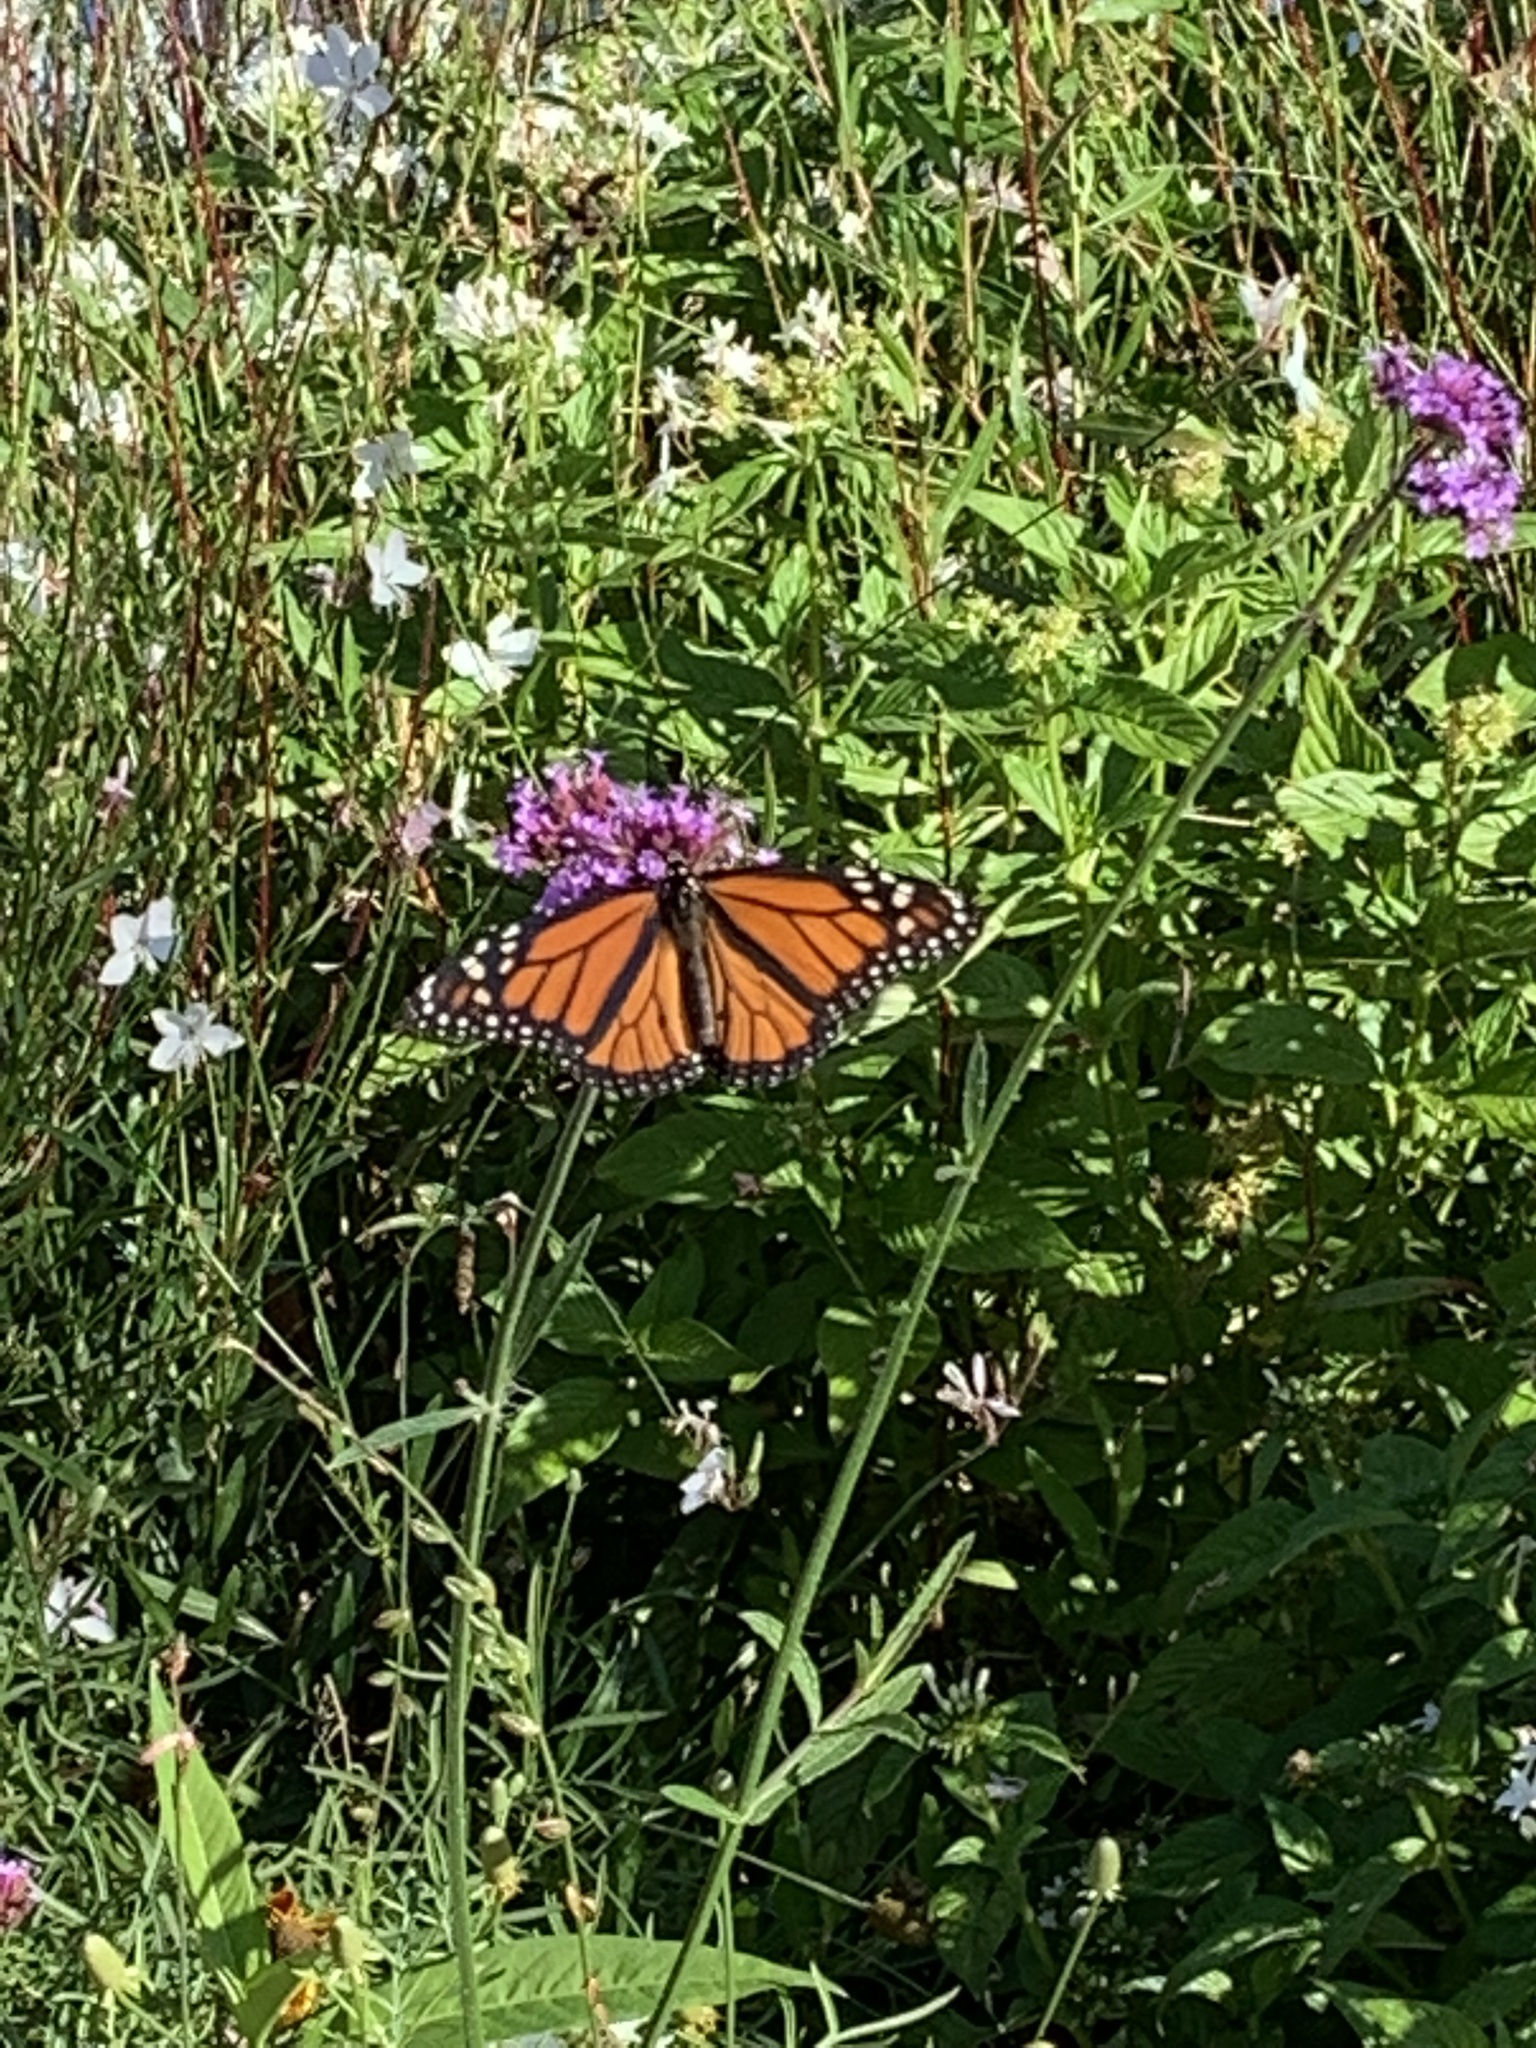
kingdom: Animalia
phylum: Arthropoda
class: Insecta
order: Lepidoptera
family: Nymphalidae
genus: Danaus
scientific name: Danaus plexippus
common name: Monarch
